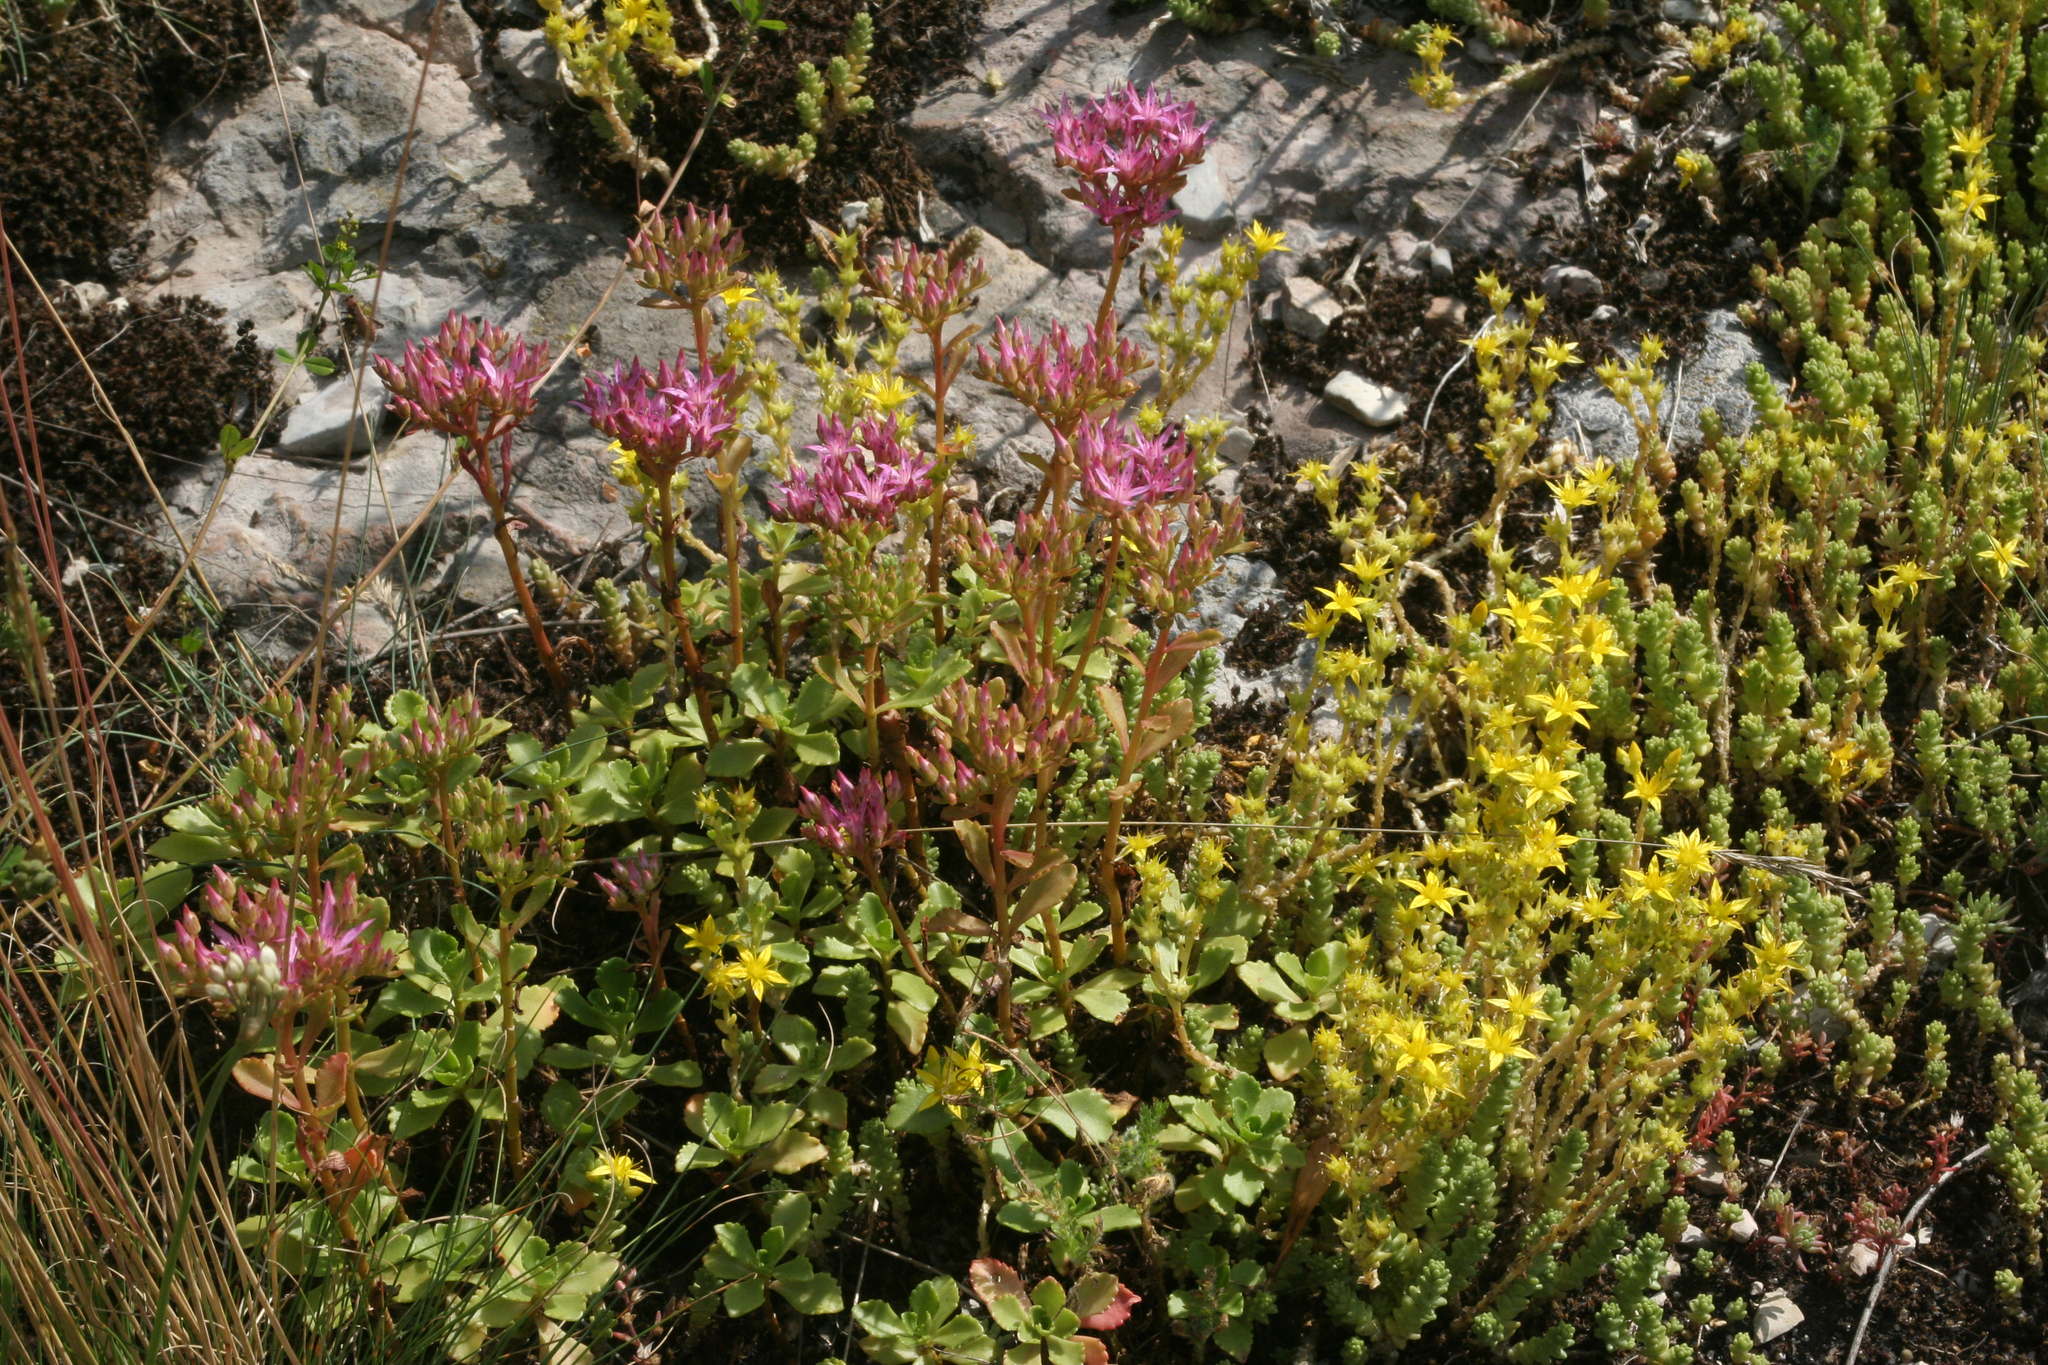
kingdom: Plantae
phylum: Tracheophyta
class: Magnoliopsida
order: Saxifragales
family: Crassulaceae
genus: Sedum
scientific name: Sedum acre
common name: Biting stonecrop
